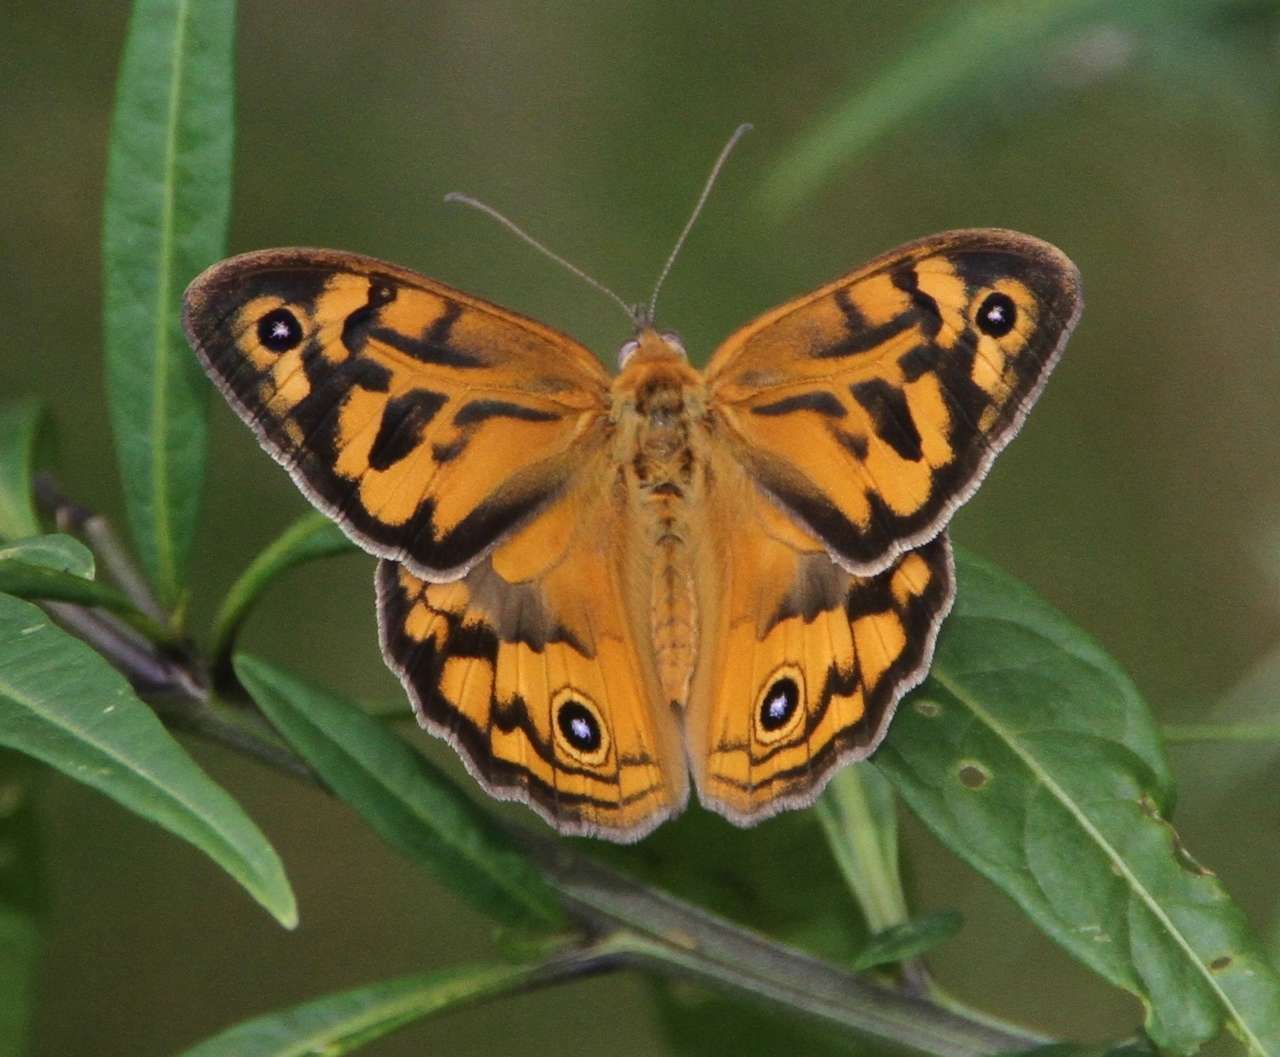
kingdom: Animalia
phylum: Arthropoda
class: Insecta
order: Lepidoptera
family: Nymphalidae
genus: Heteronympha
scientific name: Heteronympha merope
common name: Common brown
